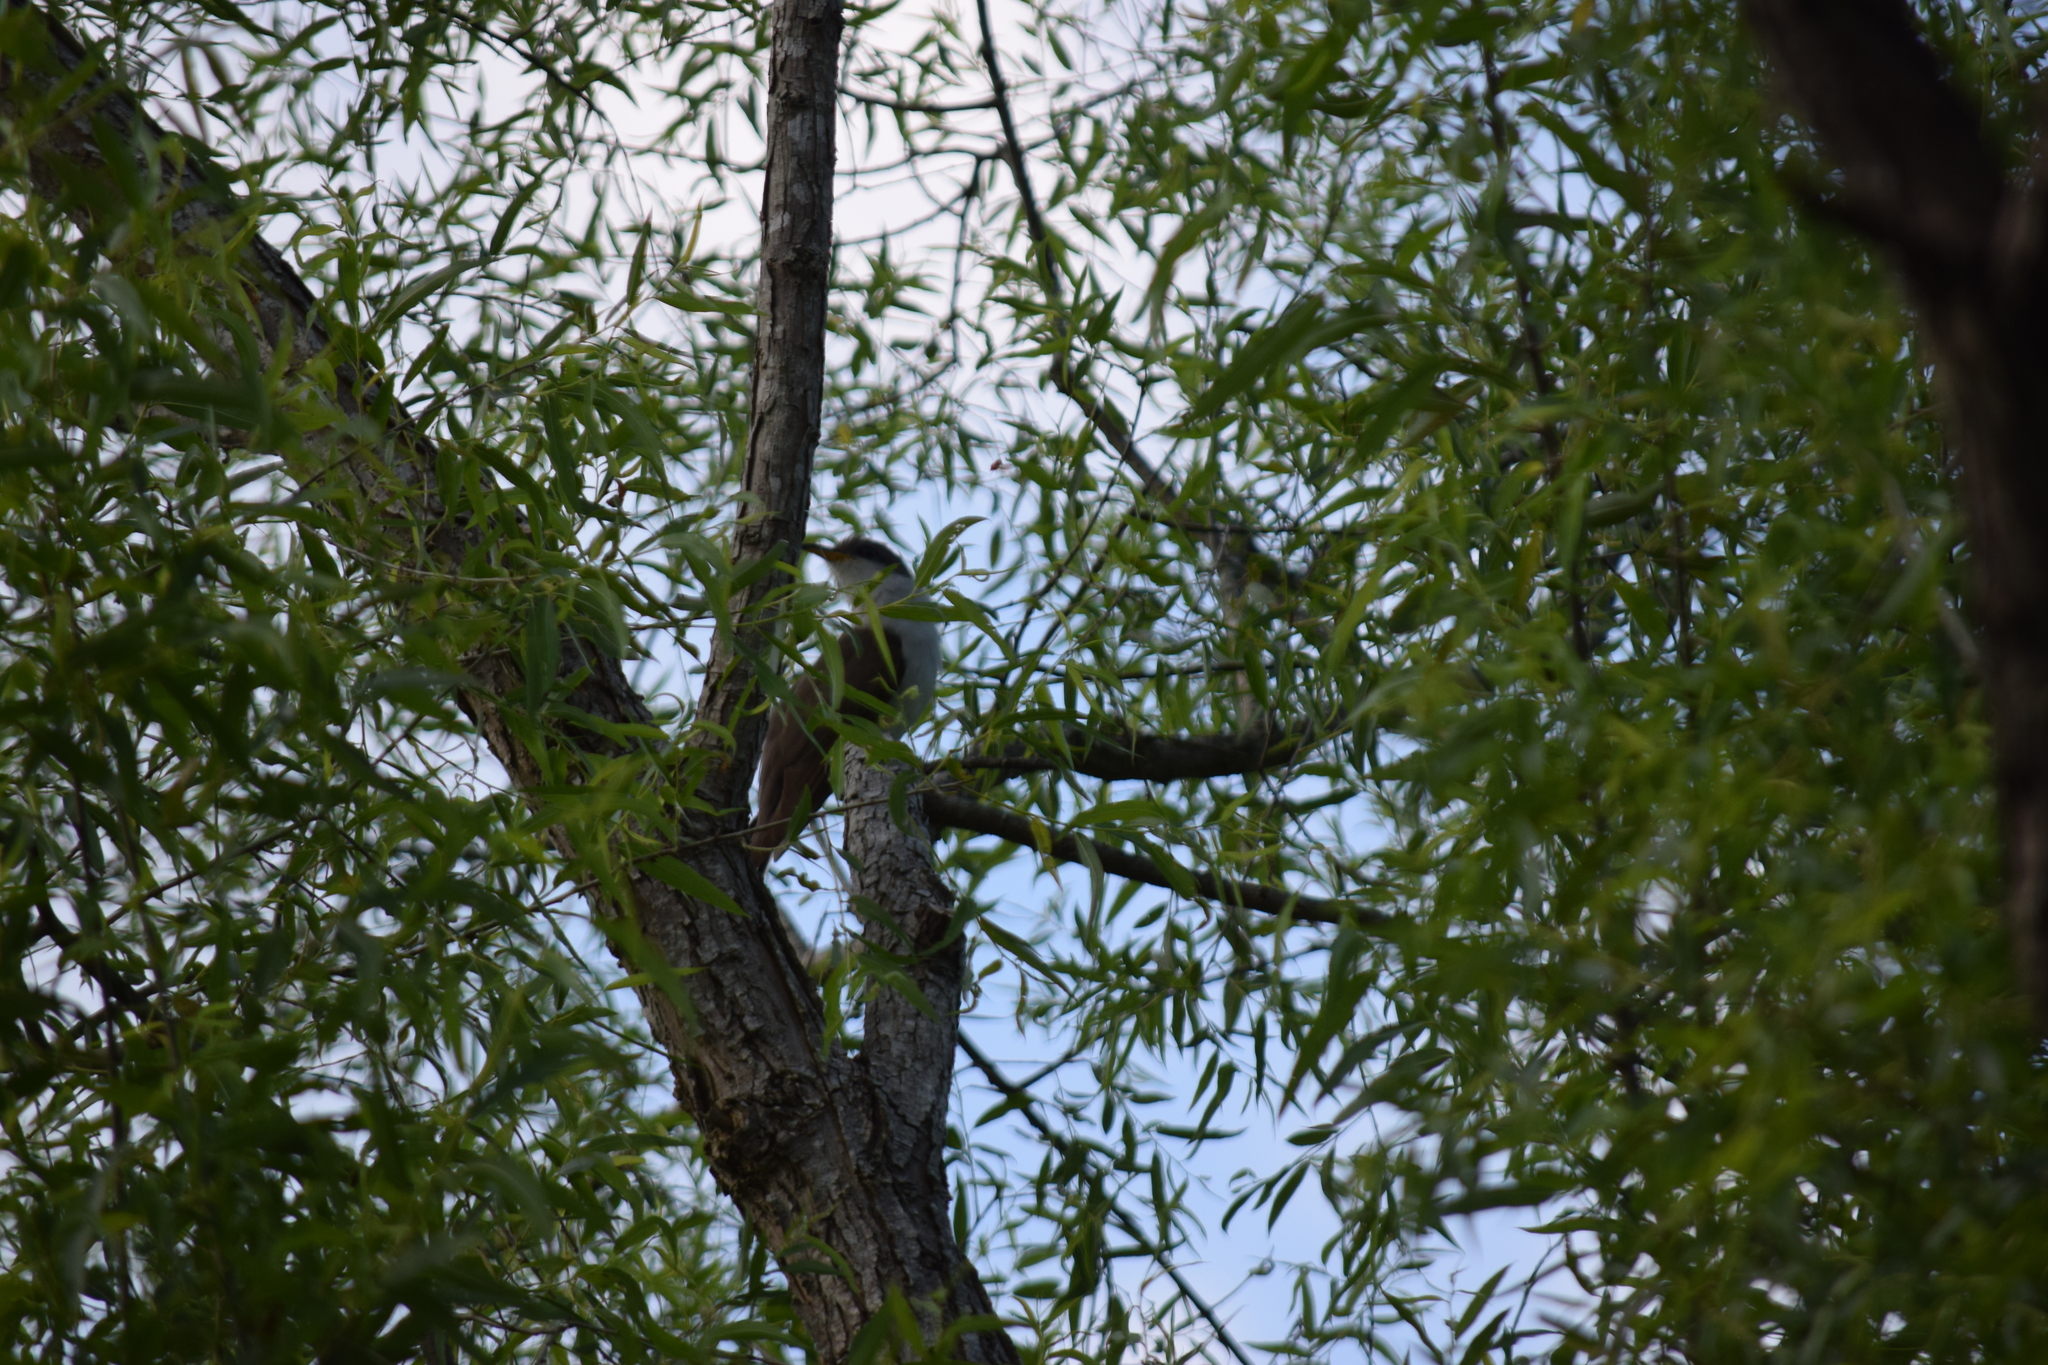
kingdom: Animalia
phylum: Chordata
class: Aves
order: Cuculiformes
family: Cuculidae
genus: Coccyzus
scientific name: Coccyzus americanus
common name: Yellow-billed cuckoo
